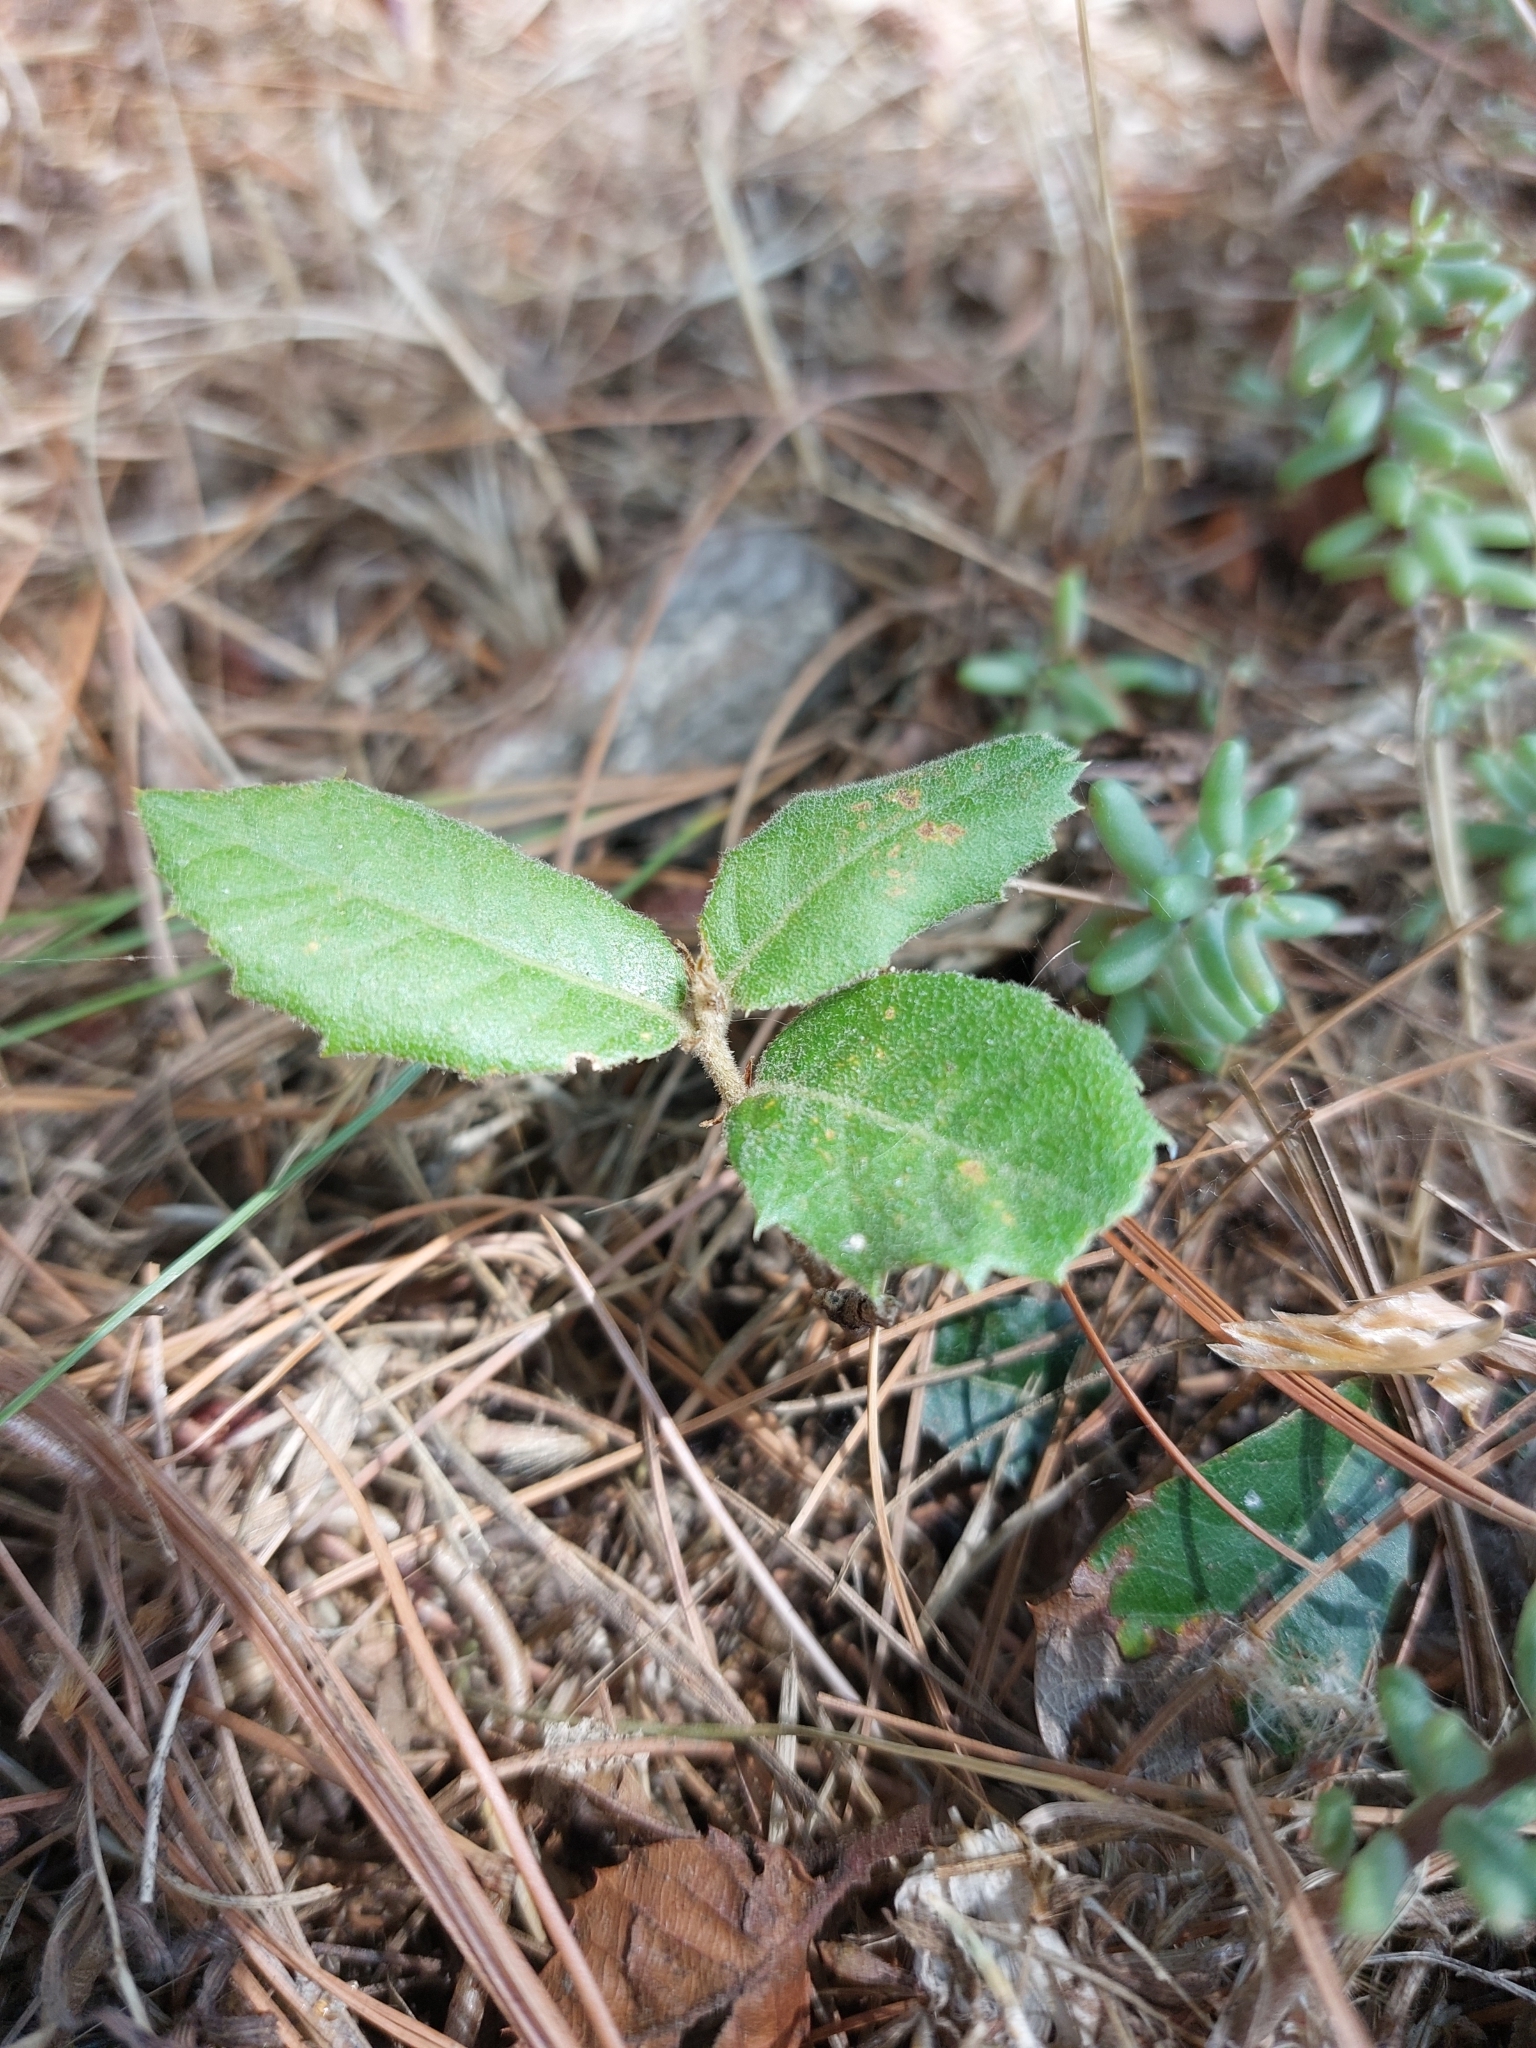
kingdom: Plantae
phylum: Tracheophyta
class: Magnoliopsida
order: Fagales
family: Fagaceae
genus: Quercus
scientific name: Quercus ilex
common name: Evergreen oak
